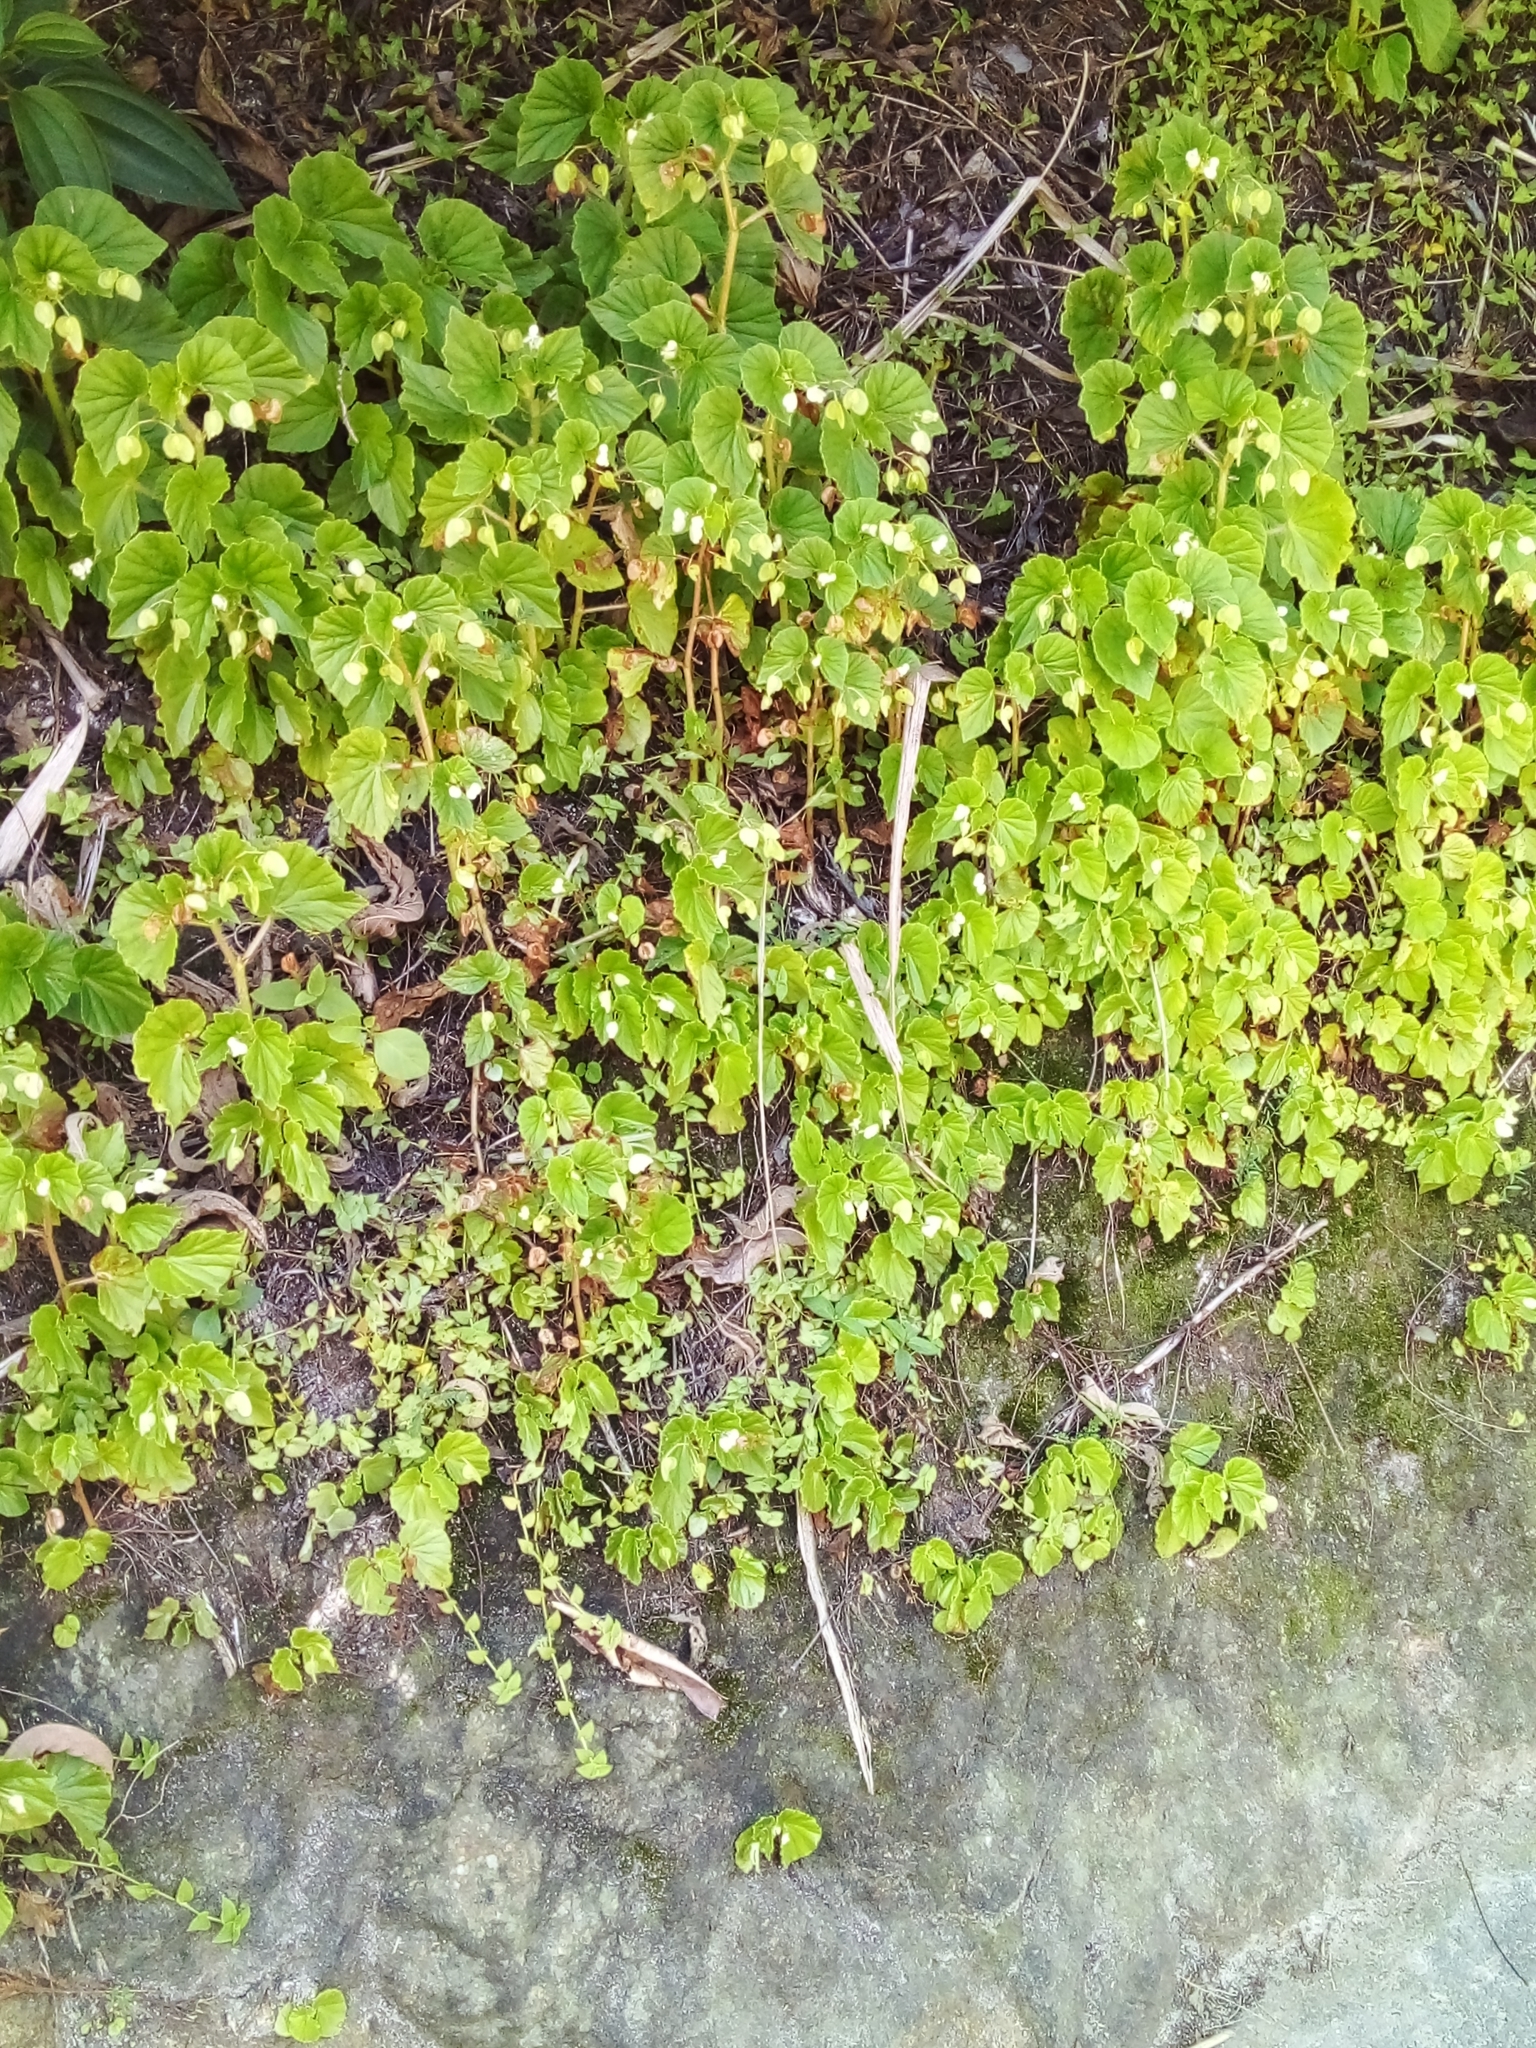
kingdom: Plantae
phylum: Tracheophyta
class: Magnoliopsida
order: Cucurbitales
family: Begoniaceae
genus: Begonia
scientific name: Begonia hirtella
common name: Brazilian begonia
